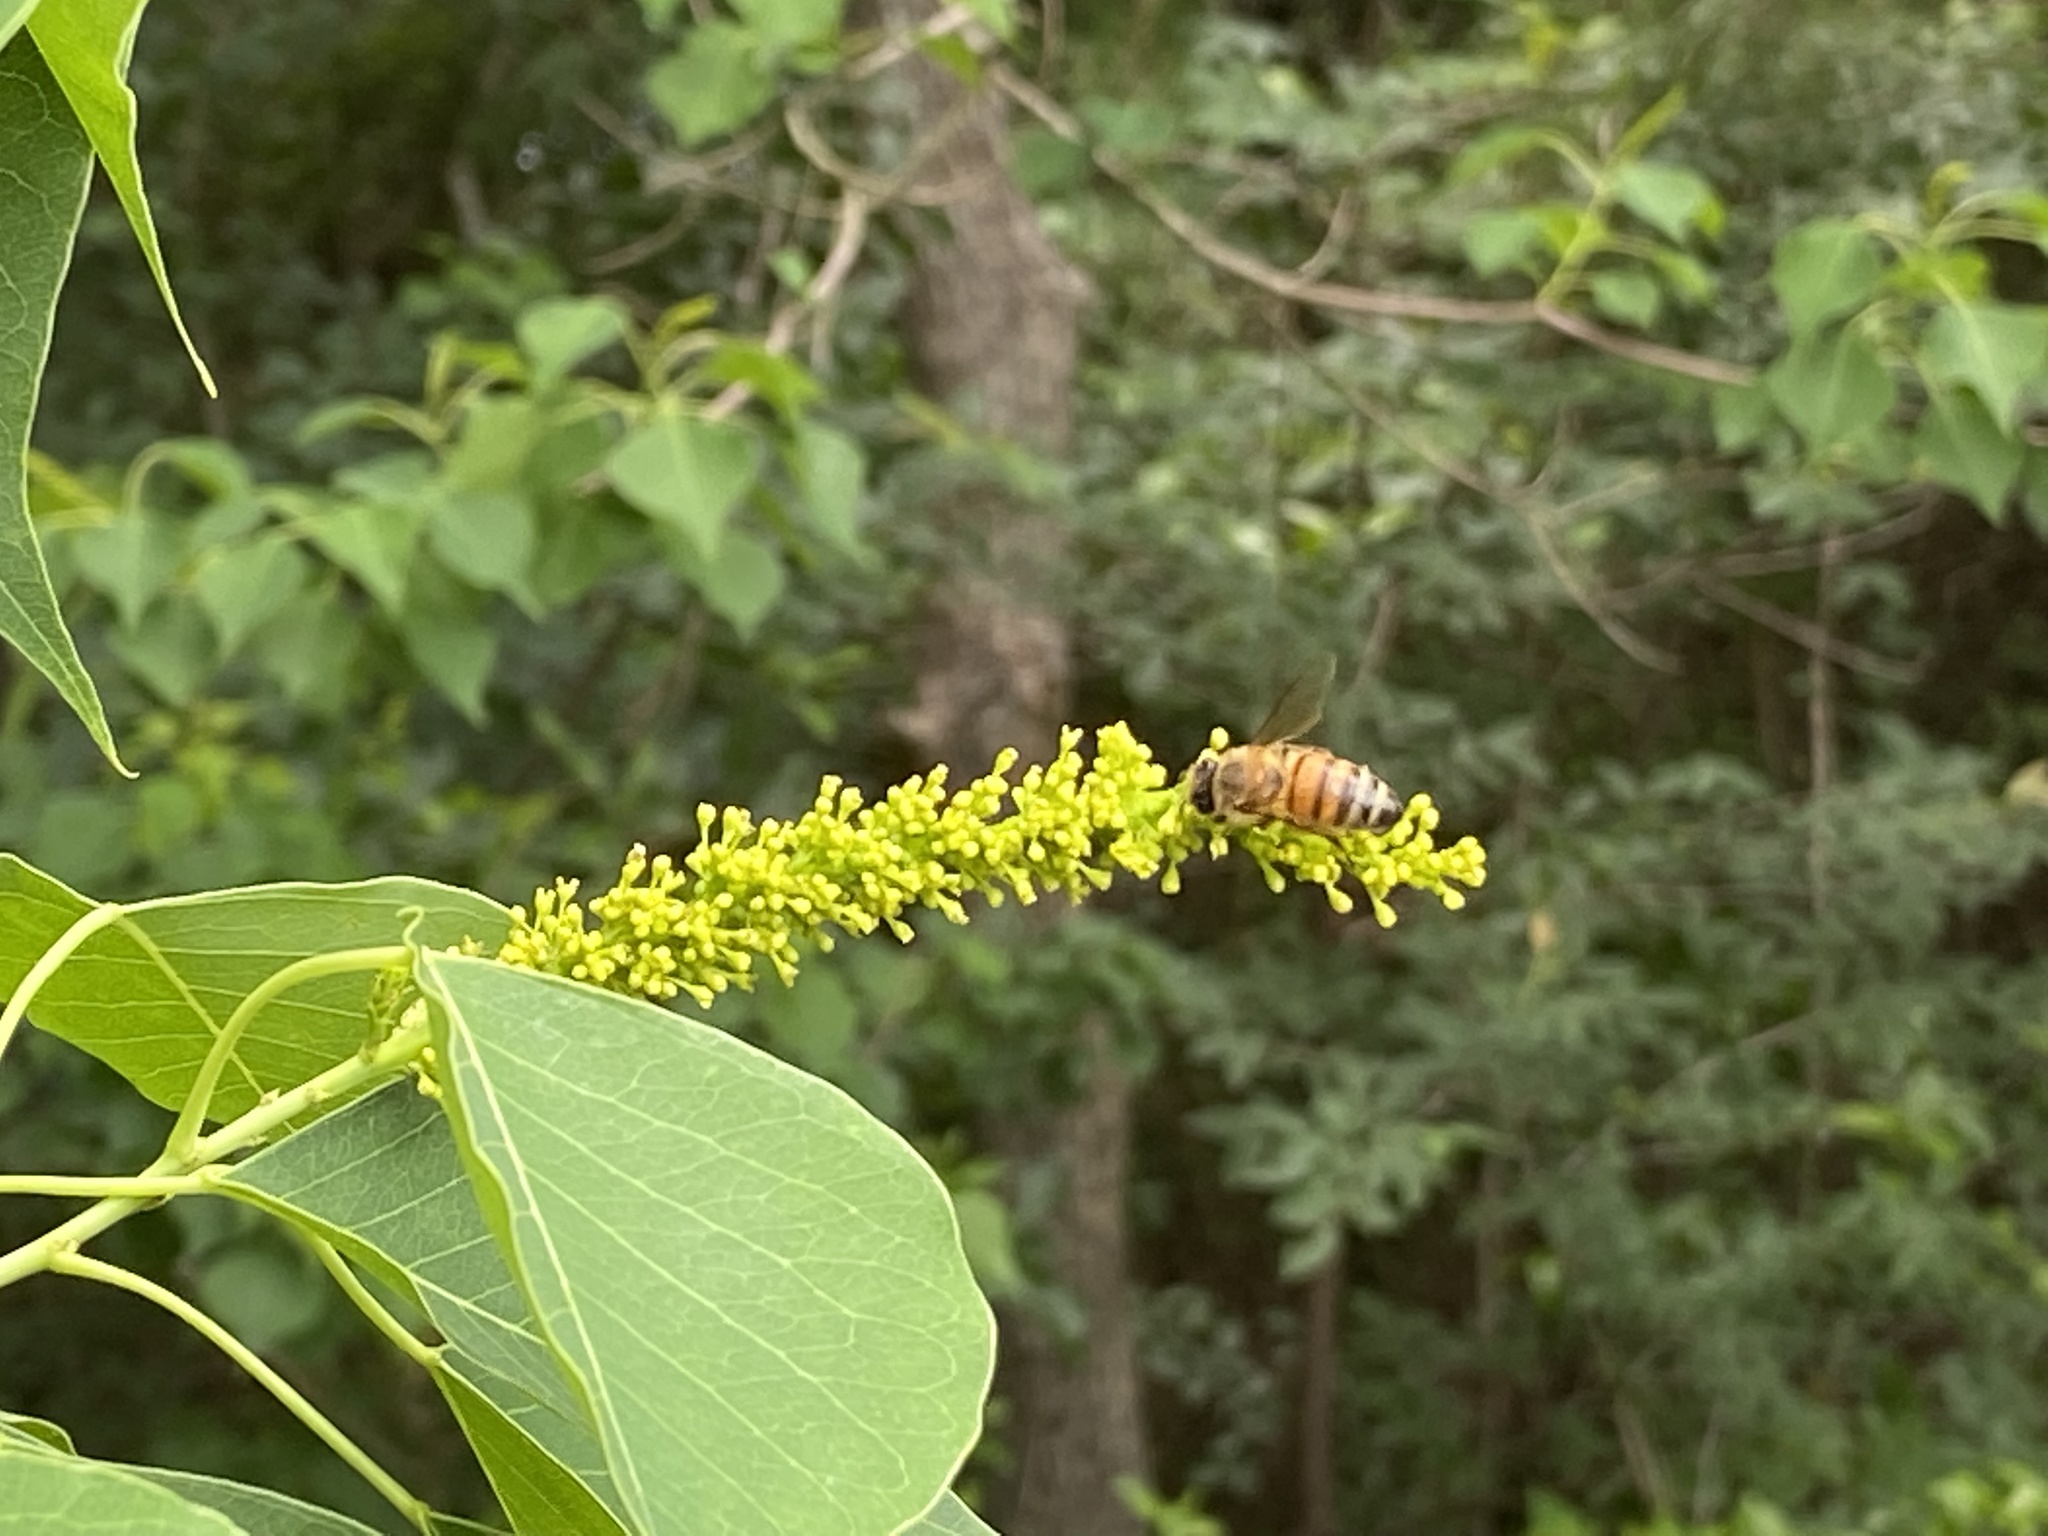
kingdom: Animalia
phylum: Arthropoda
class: Insecta
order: Hymenoptera
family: Apidae
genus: Apis
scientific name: Apis mellifera
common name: Honey bee
